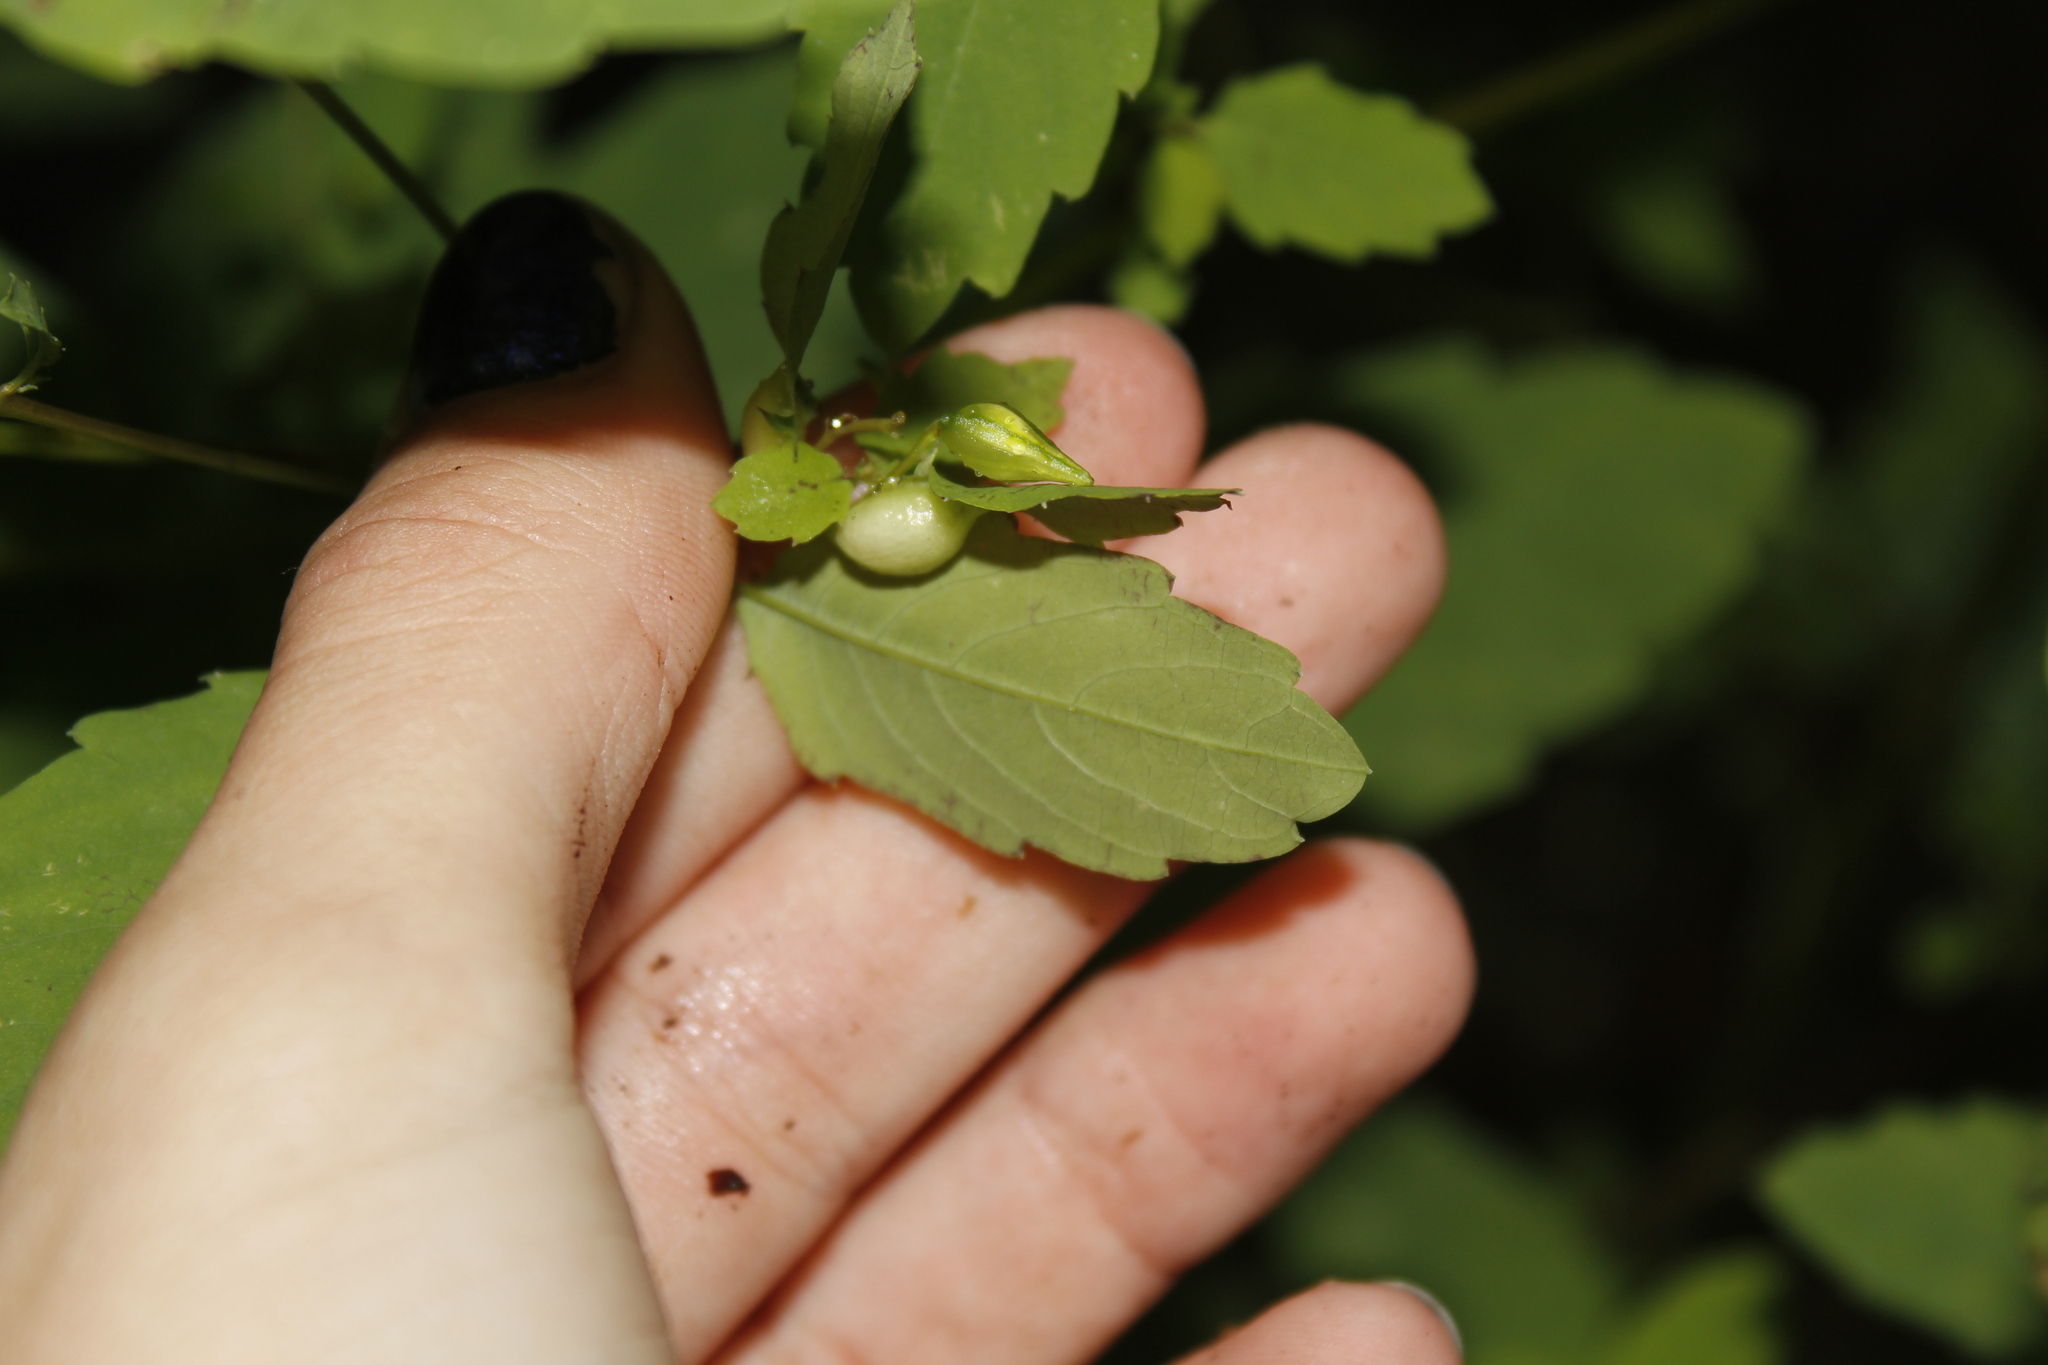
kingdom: Animalia
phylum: Arthropoda
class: Insecta
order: Diptera
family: Cecidomyiidae
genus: Neolasioptera
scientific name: Neolasioptera impatientifolia
